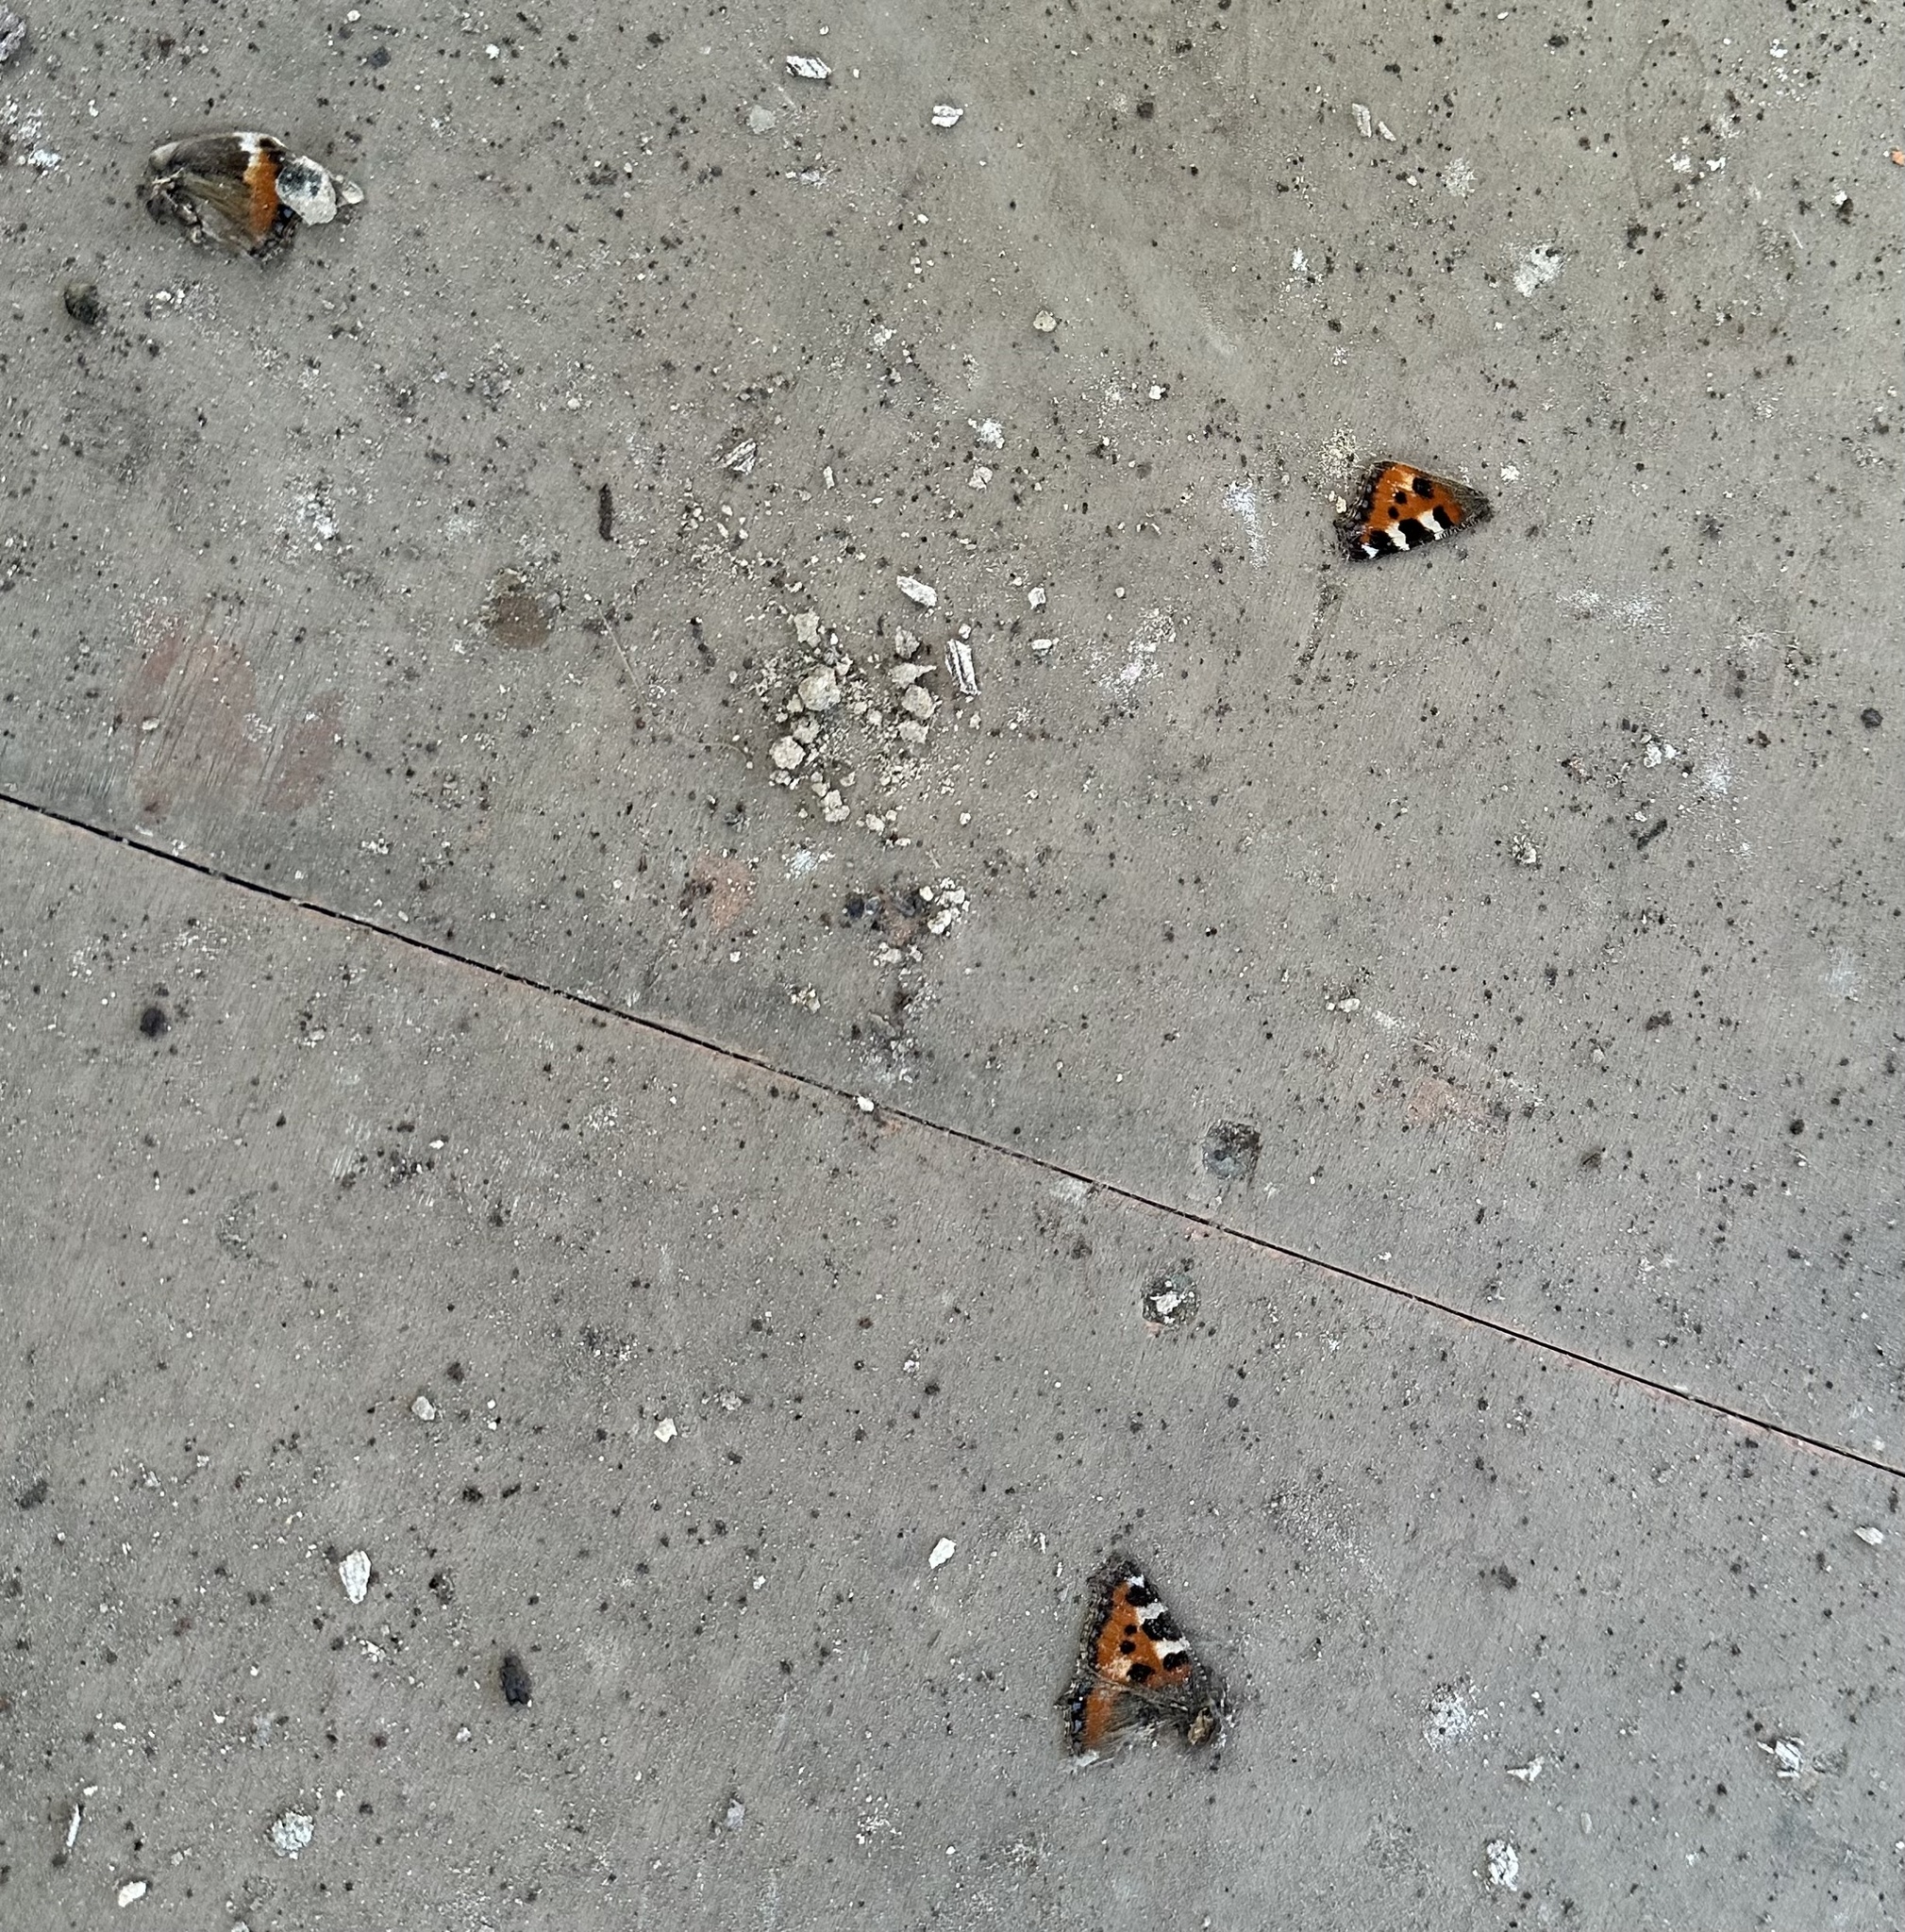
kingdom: Animalia
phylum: Arthropoda
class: Insecta
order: Lepidoptera
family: Nymphalidae
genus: Aglais
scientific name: Aglais urticae
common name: Small tortoiseshell
